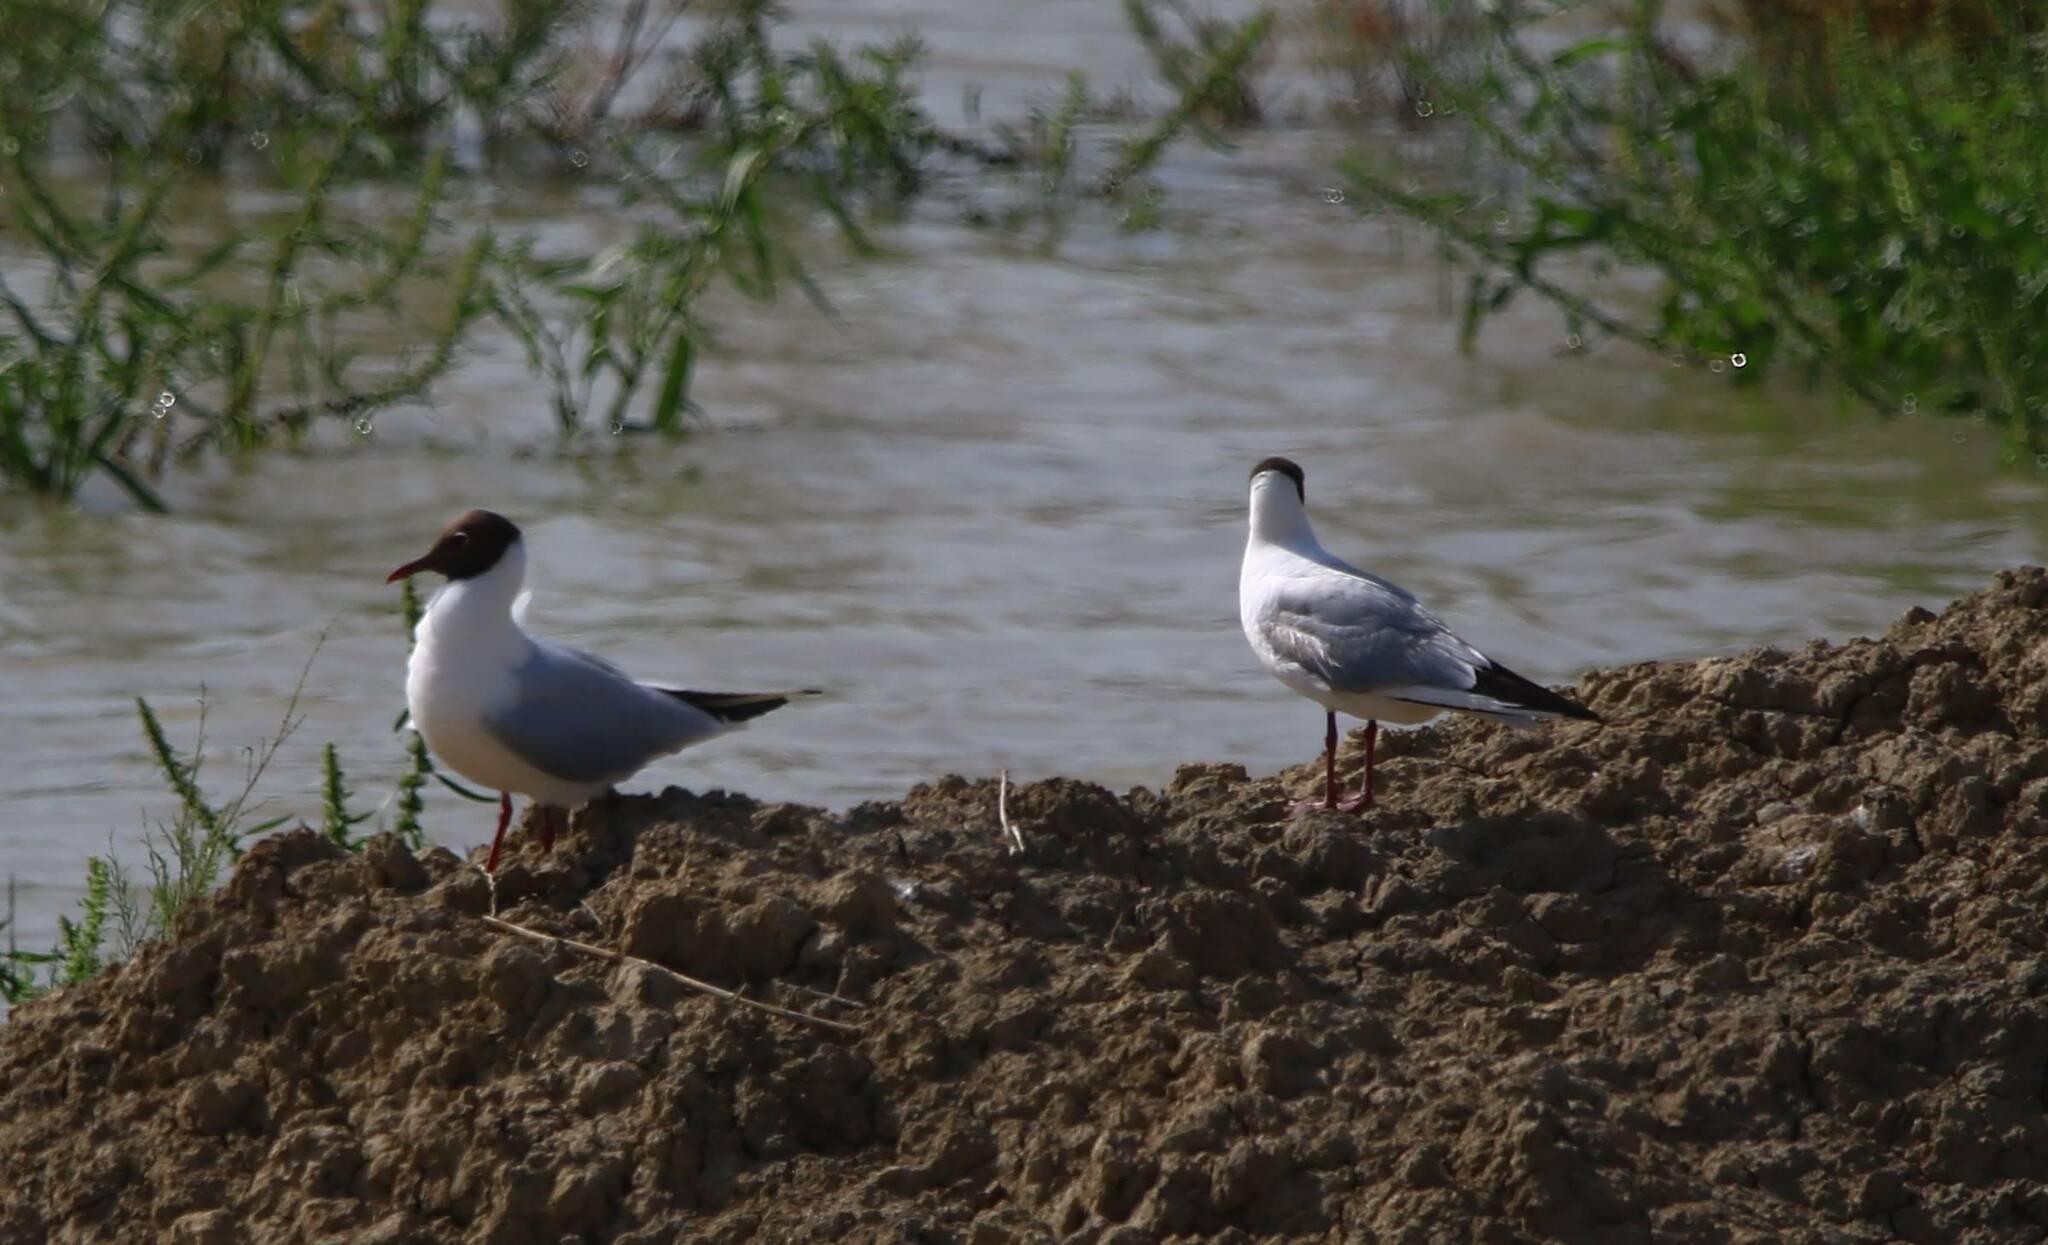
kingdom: Animalia
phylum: Chordata
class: Aves
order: Charadriiformes
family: Laridae
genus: Chroicocephalus
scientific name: Chroicocephalus ridibundus
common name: Black-headed gull
